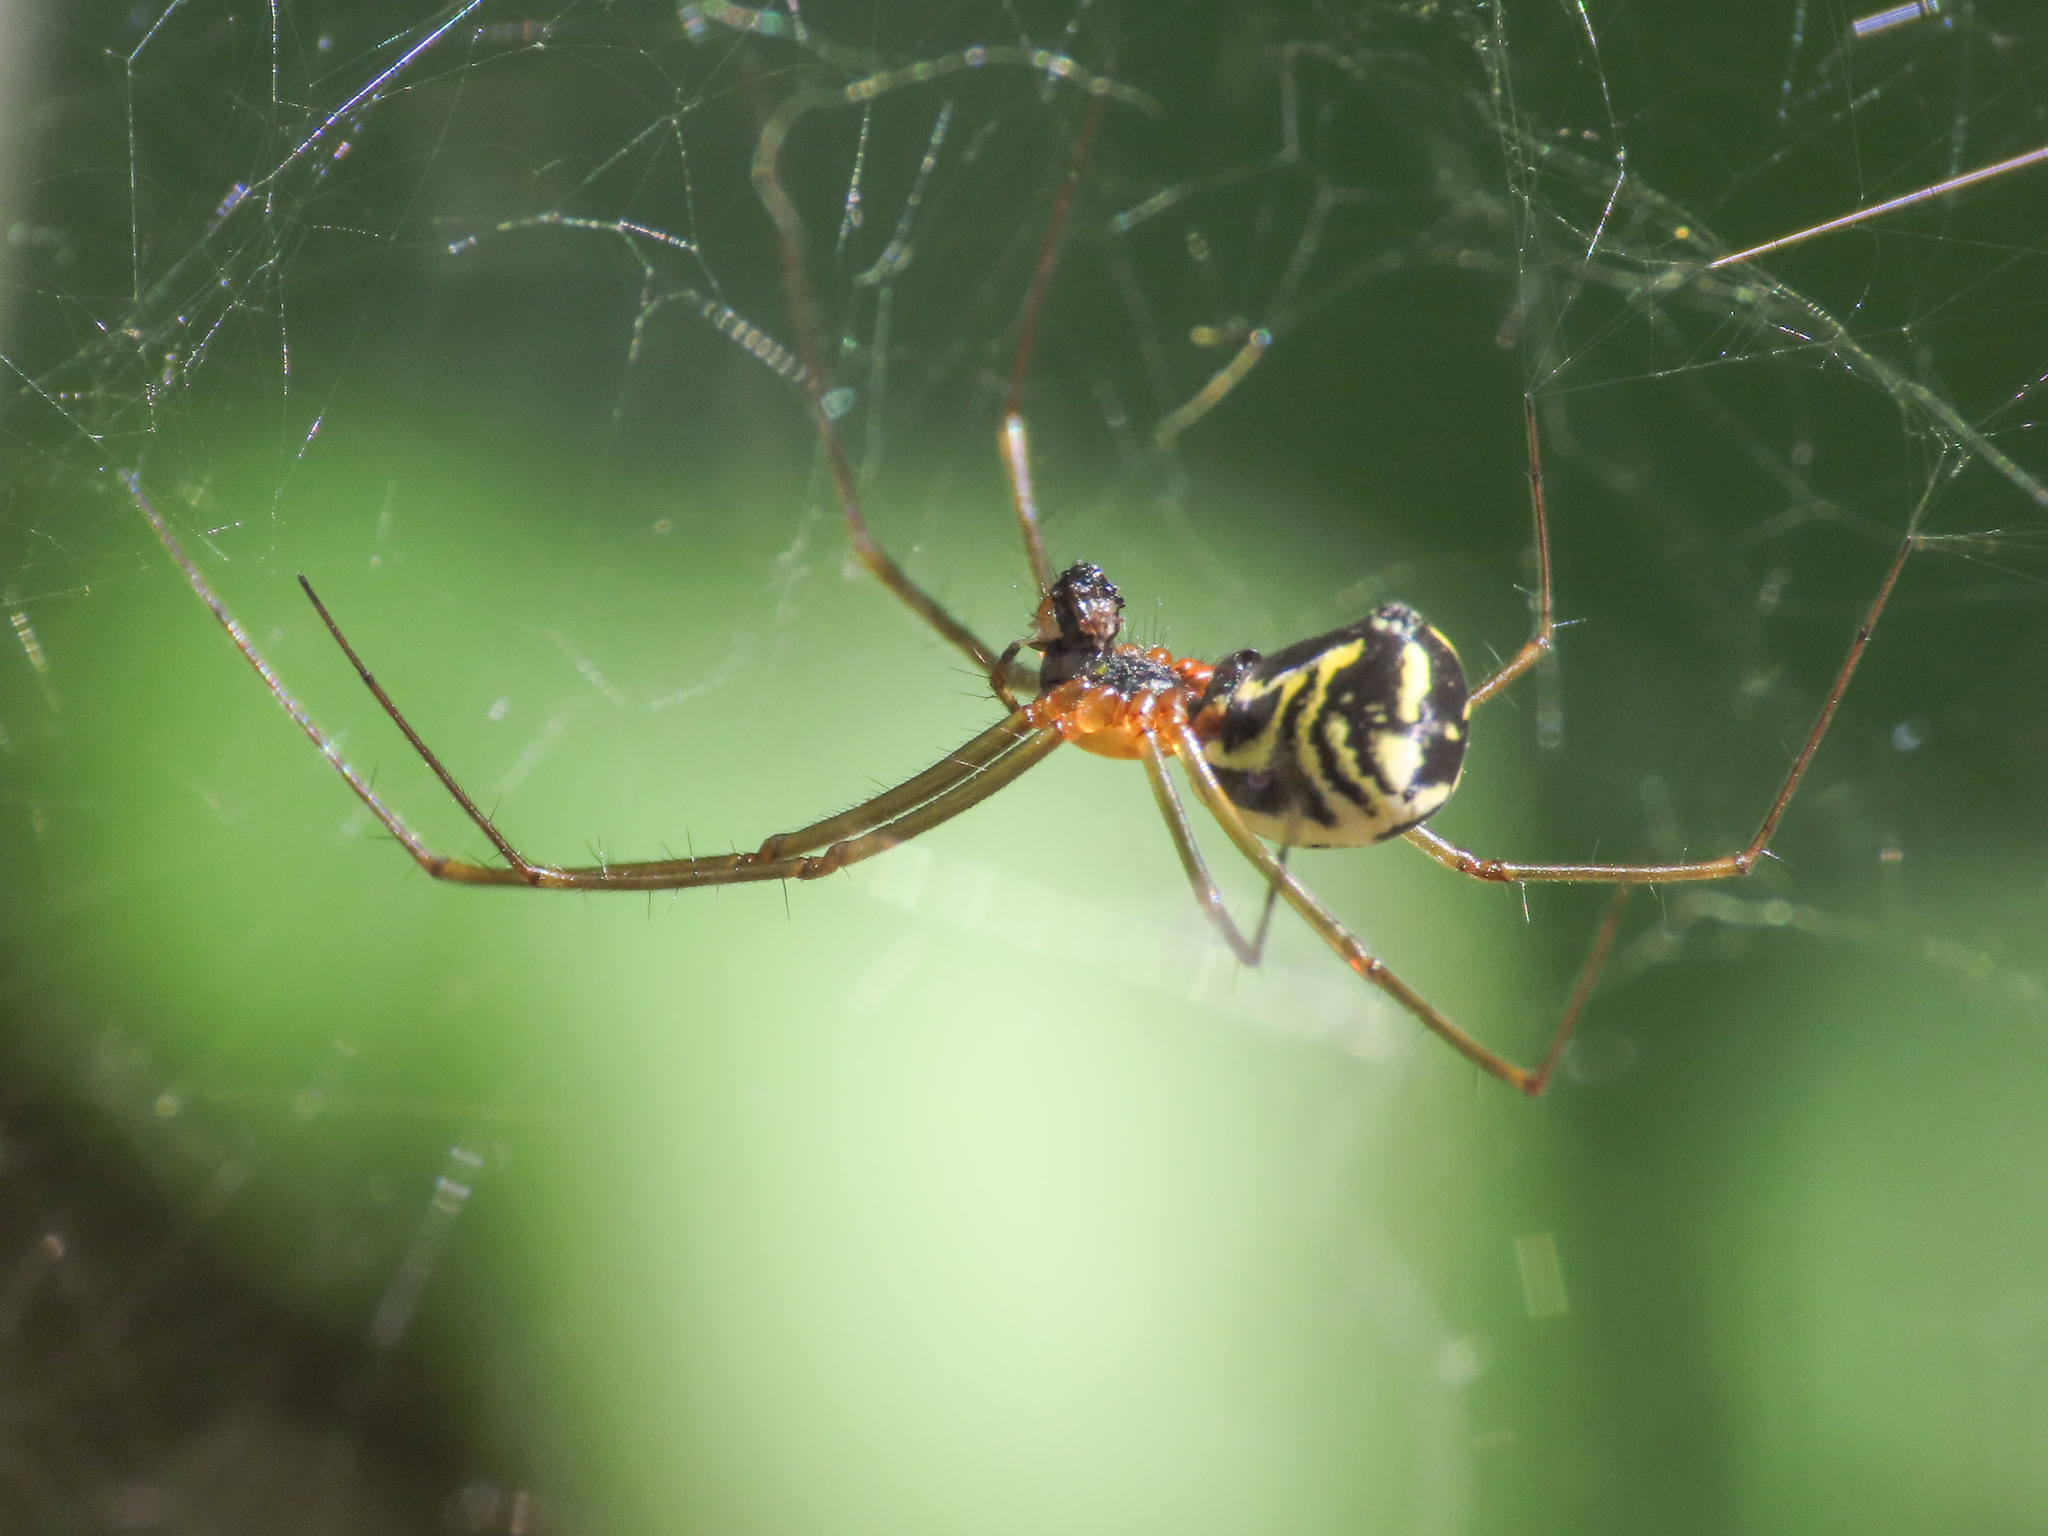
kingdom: Animalia
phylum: Arthropoda
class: Arachnida
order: Araneae
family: Linyphiidae
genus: Neriene
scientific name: Neriene radiata
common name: Filmy dome spider
